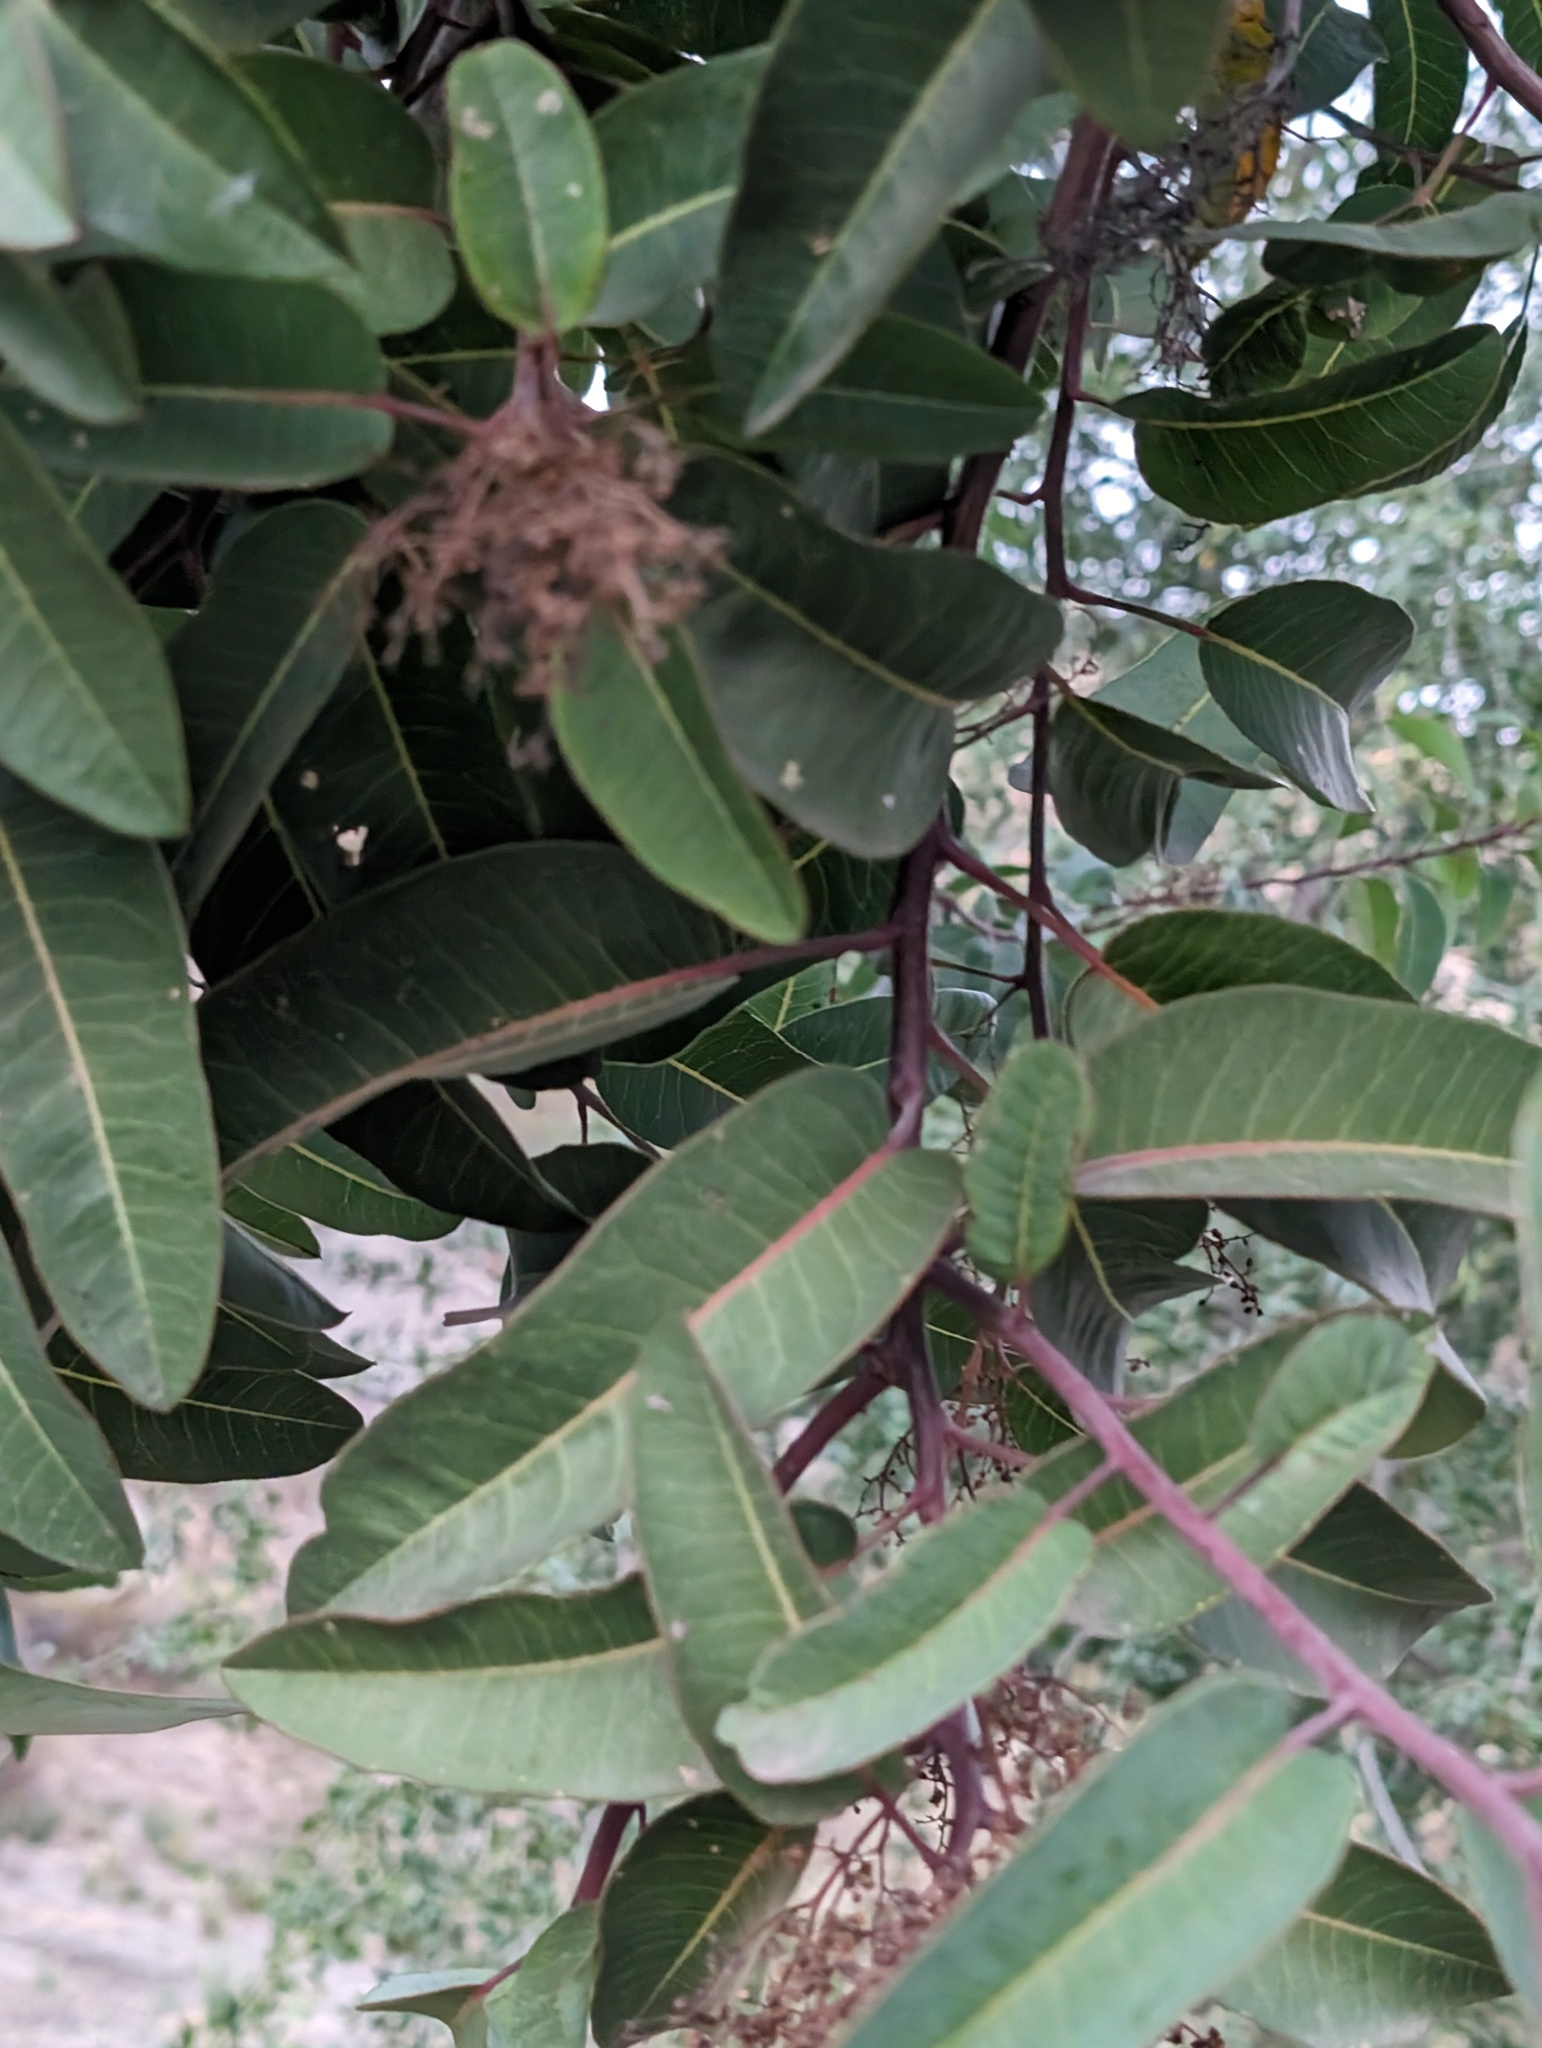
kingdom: Plantae
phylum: Tracheophyta
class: Magnoliopsida
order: Sapindales
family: Anacardiaceae
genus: Malosma
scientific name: Malosma laurina
